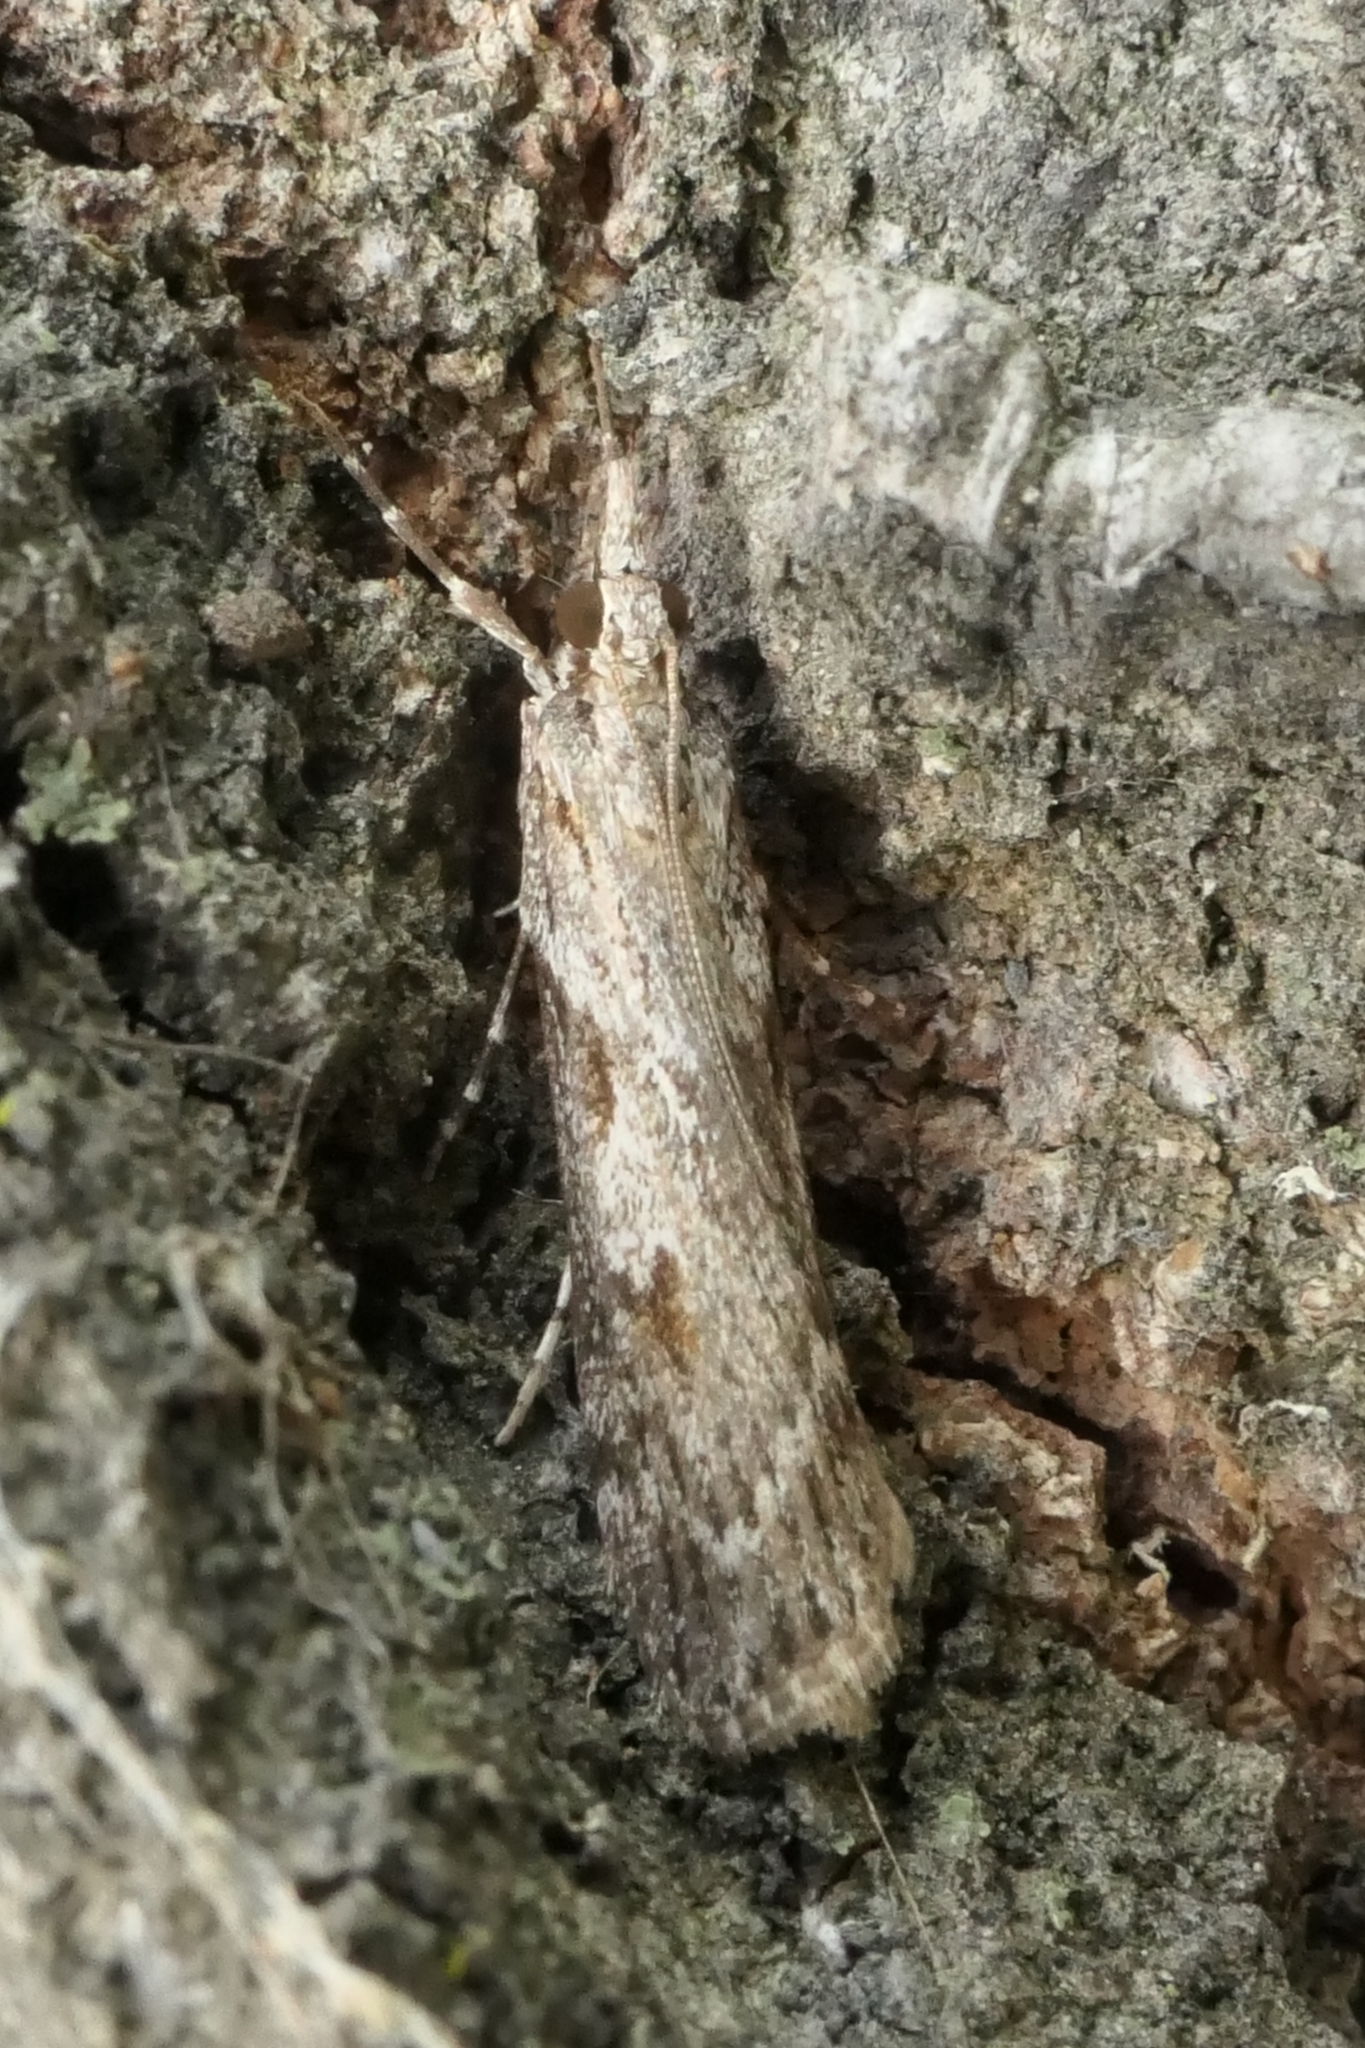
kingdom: Animalia
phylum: Arthropoda
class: Insecta
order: Lepidoptera
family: Crambidae
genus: Scoparia
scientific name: Scoparia halopis
